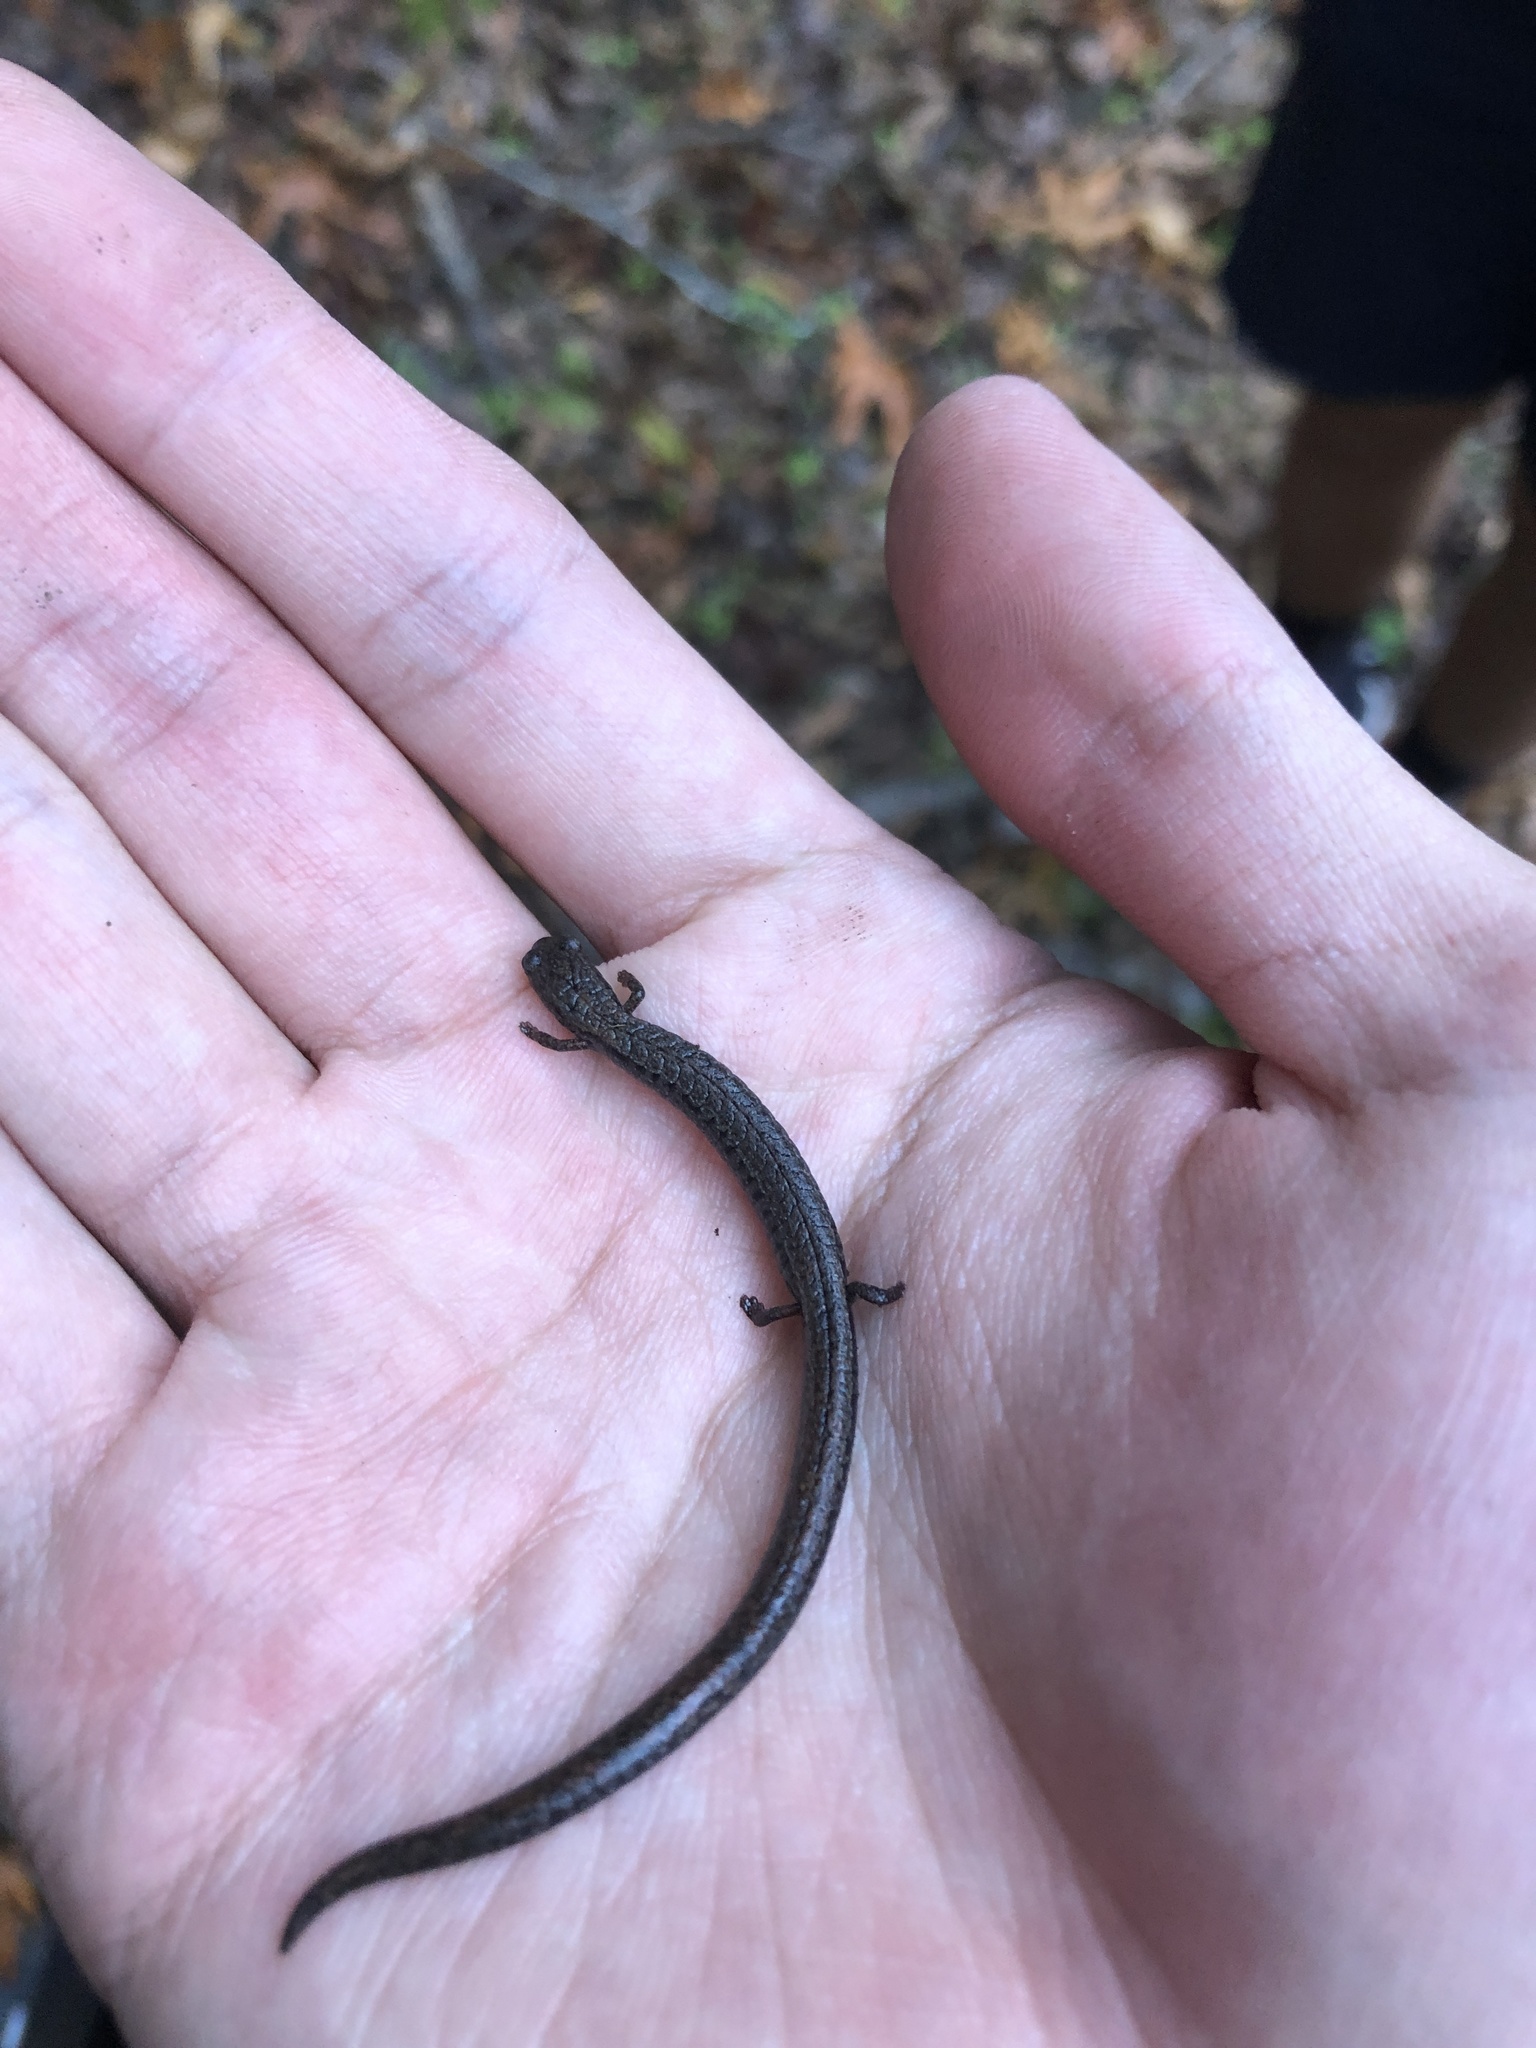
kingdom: Animalia
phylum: Chordata
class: Amphibia
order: Caudata
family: Plethodontidae
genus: Batrachoseps
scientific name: Batrachoseps attenuatus
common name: California slender salamander
